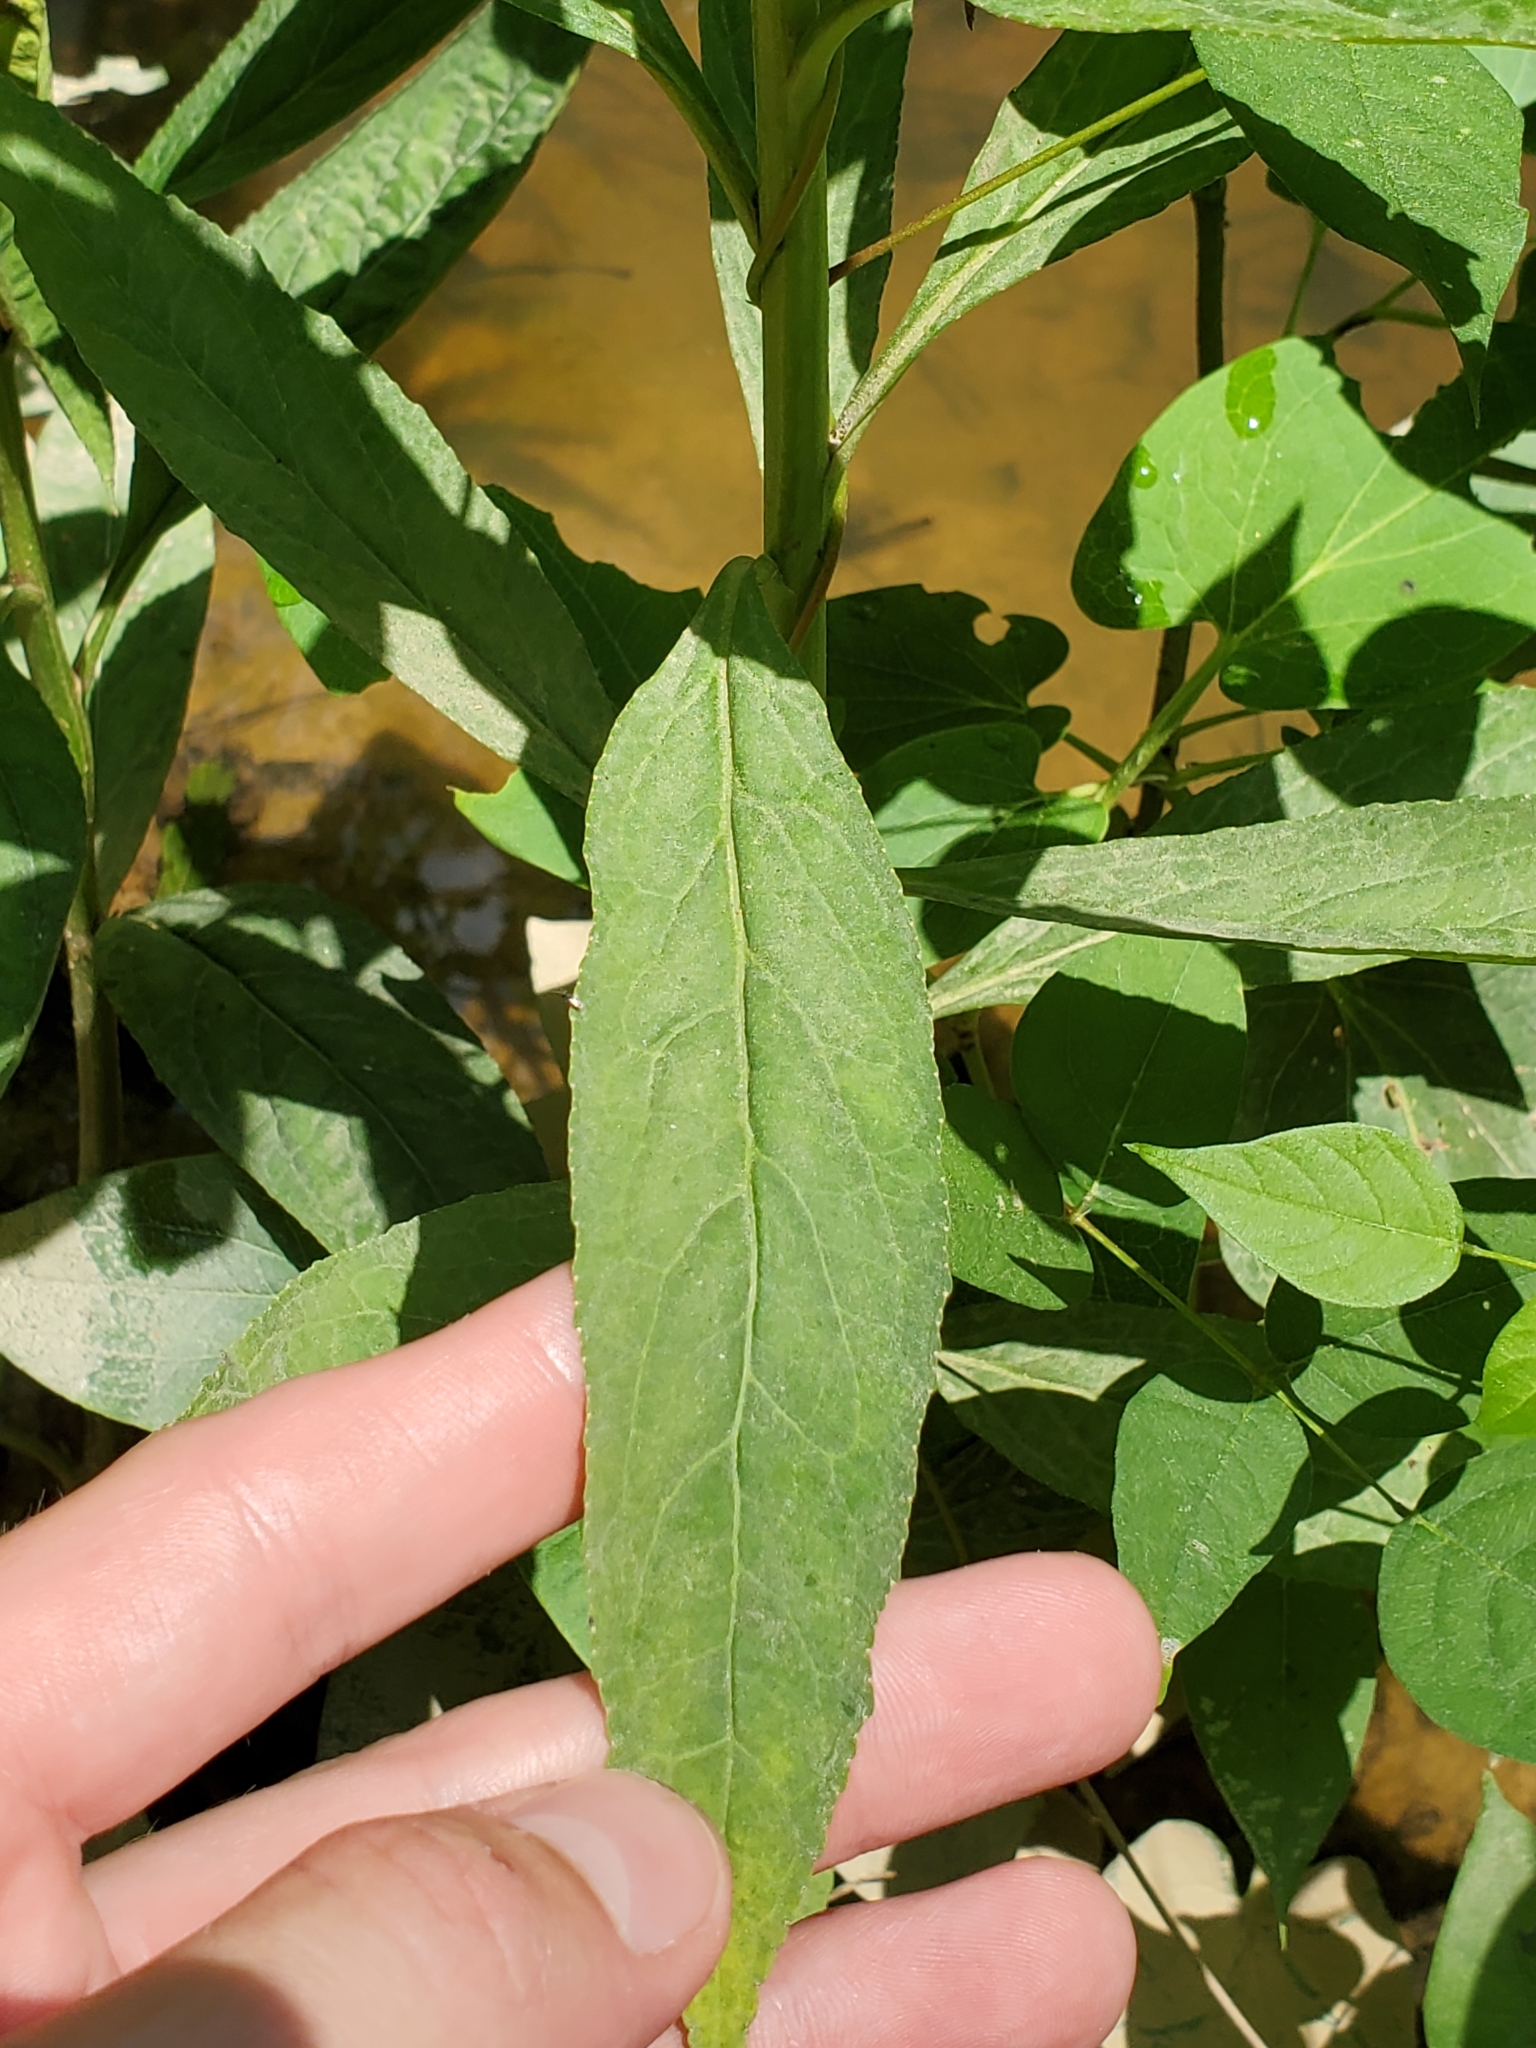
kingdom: Plantae
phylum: Tracheophyta
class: Magnoliopsida
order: Asterales
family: Campanulaceae
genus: Lobelia
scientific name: Lobelia cardinalis
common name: Cardinal flower
